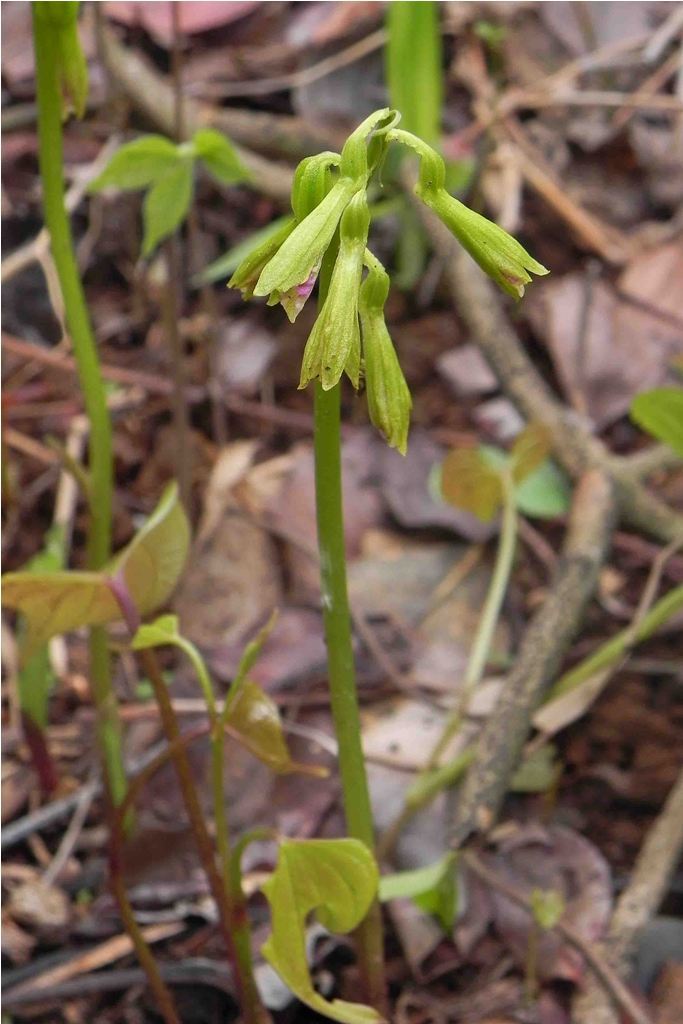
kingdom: Plantae
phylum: Tracheophyta
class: Liliopsida
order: Asparagales
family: Orchidaceae
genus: Nervilia
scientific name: Nervilia concolor
